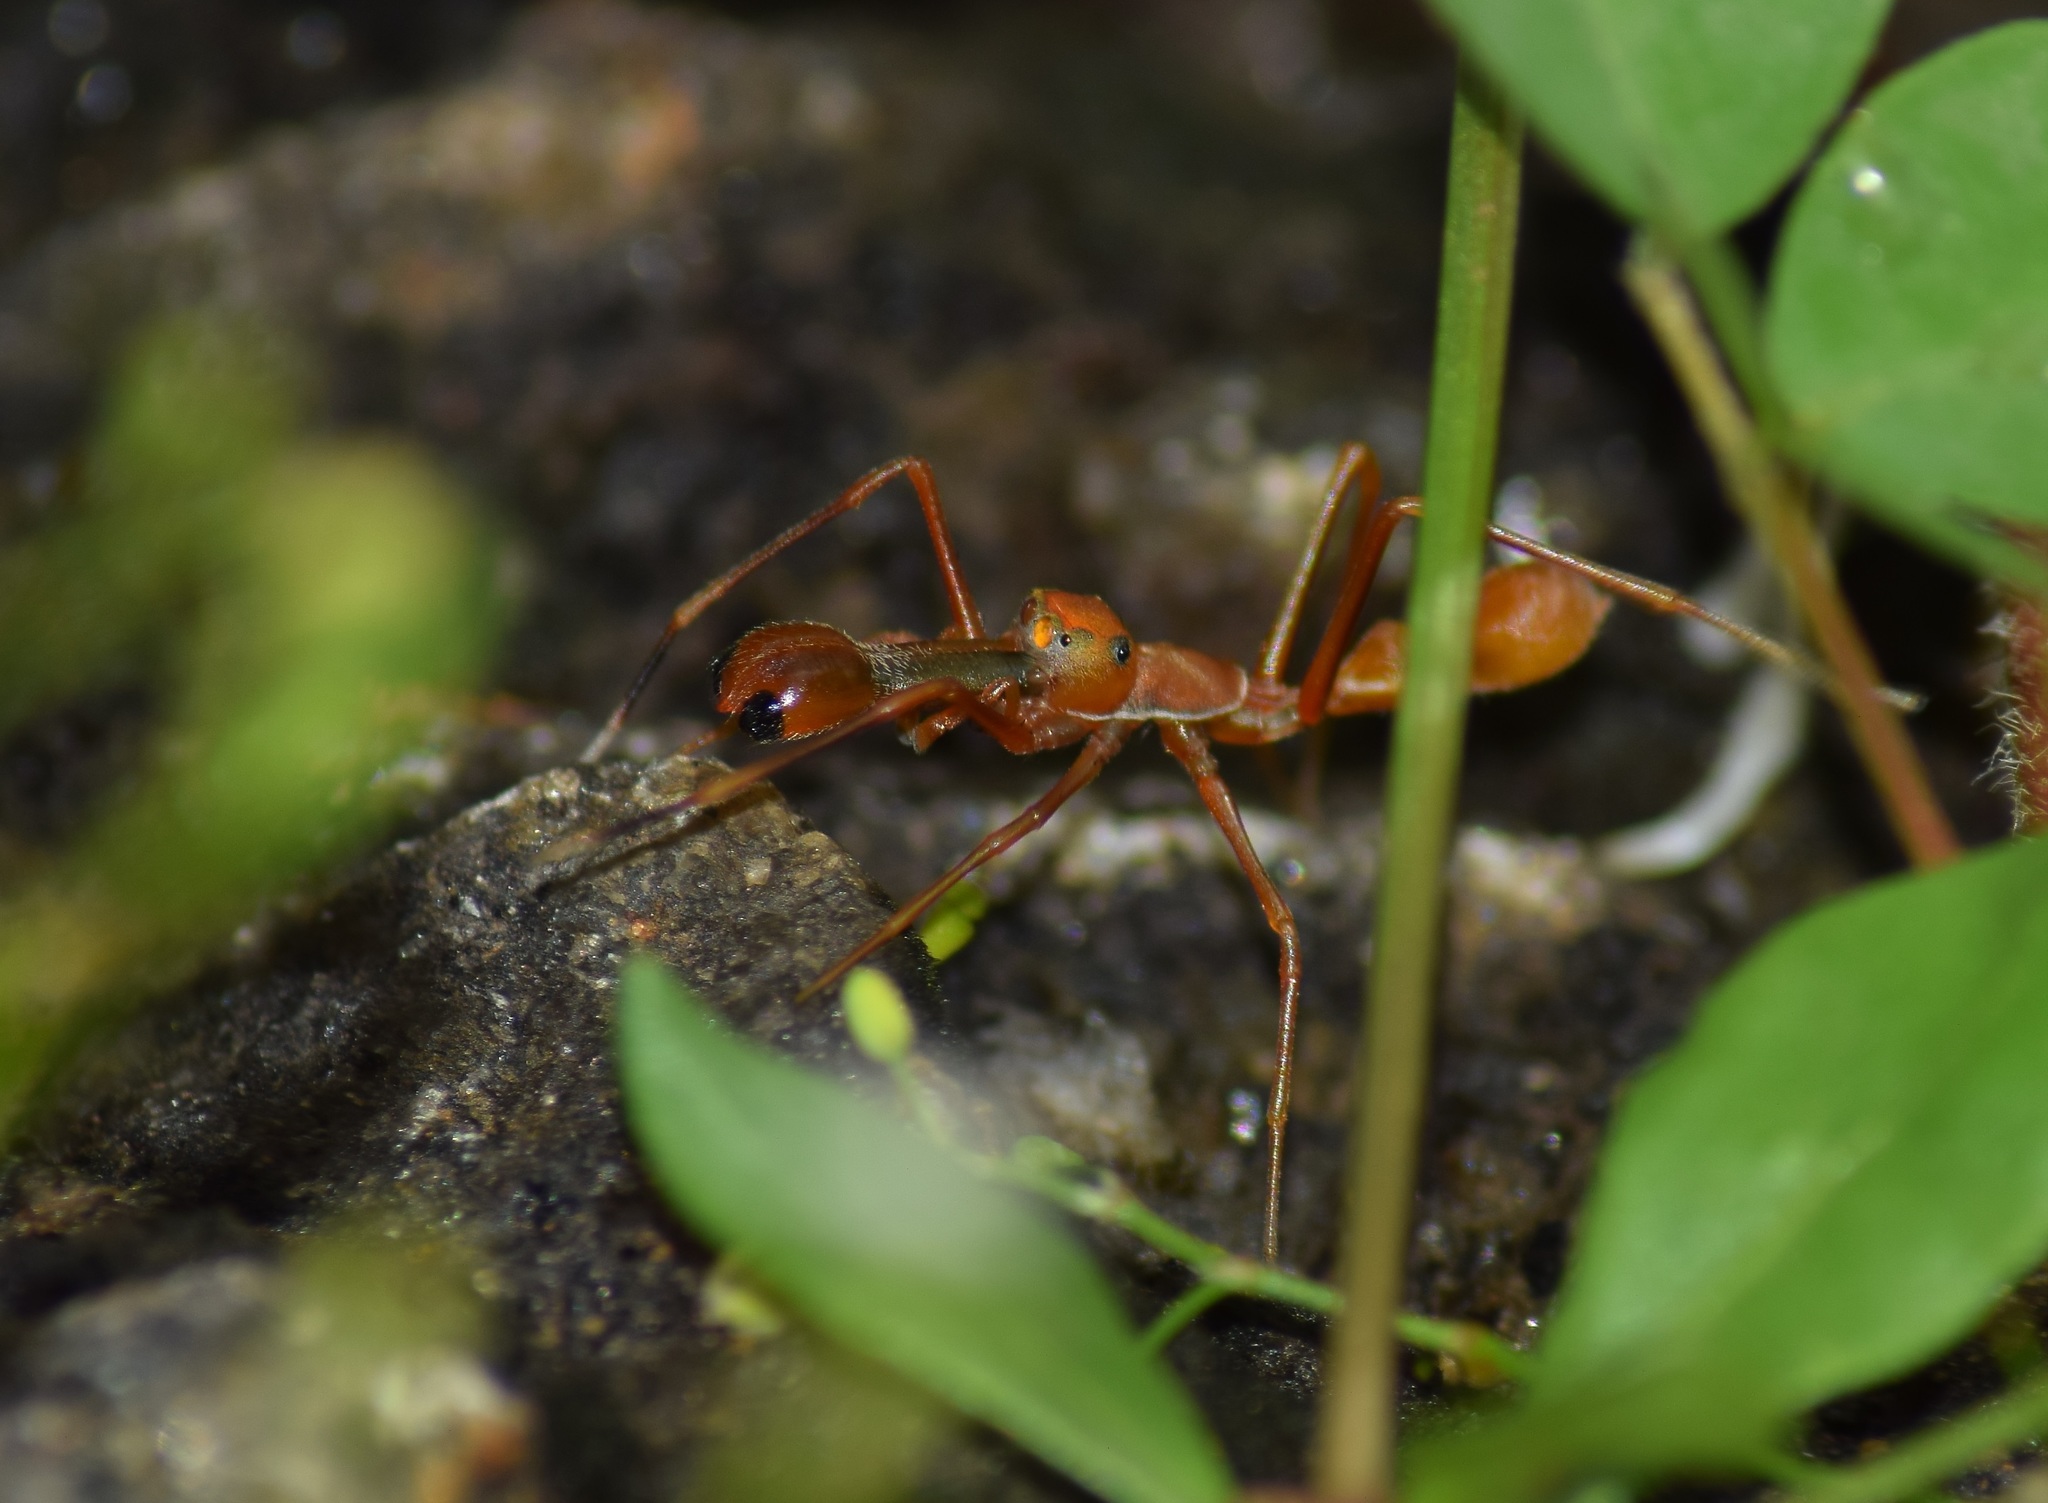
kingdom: Animalia
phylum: Arthropoda
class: Arachnida
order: Araneae
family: Salticidae
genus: Myrmaplata
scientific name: Myrmaplata plataleoides
